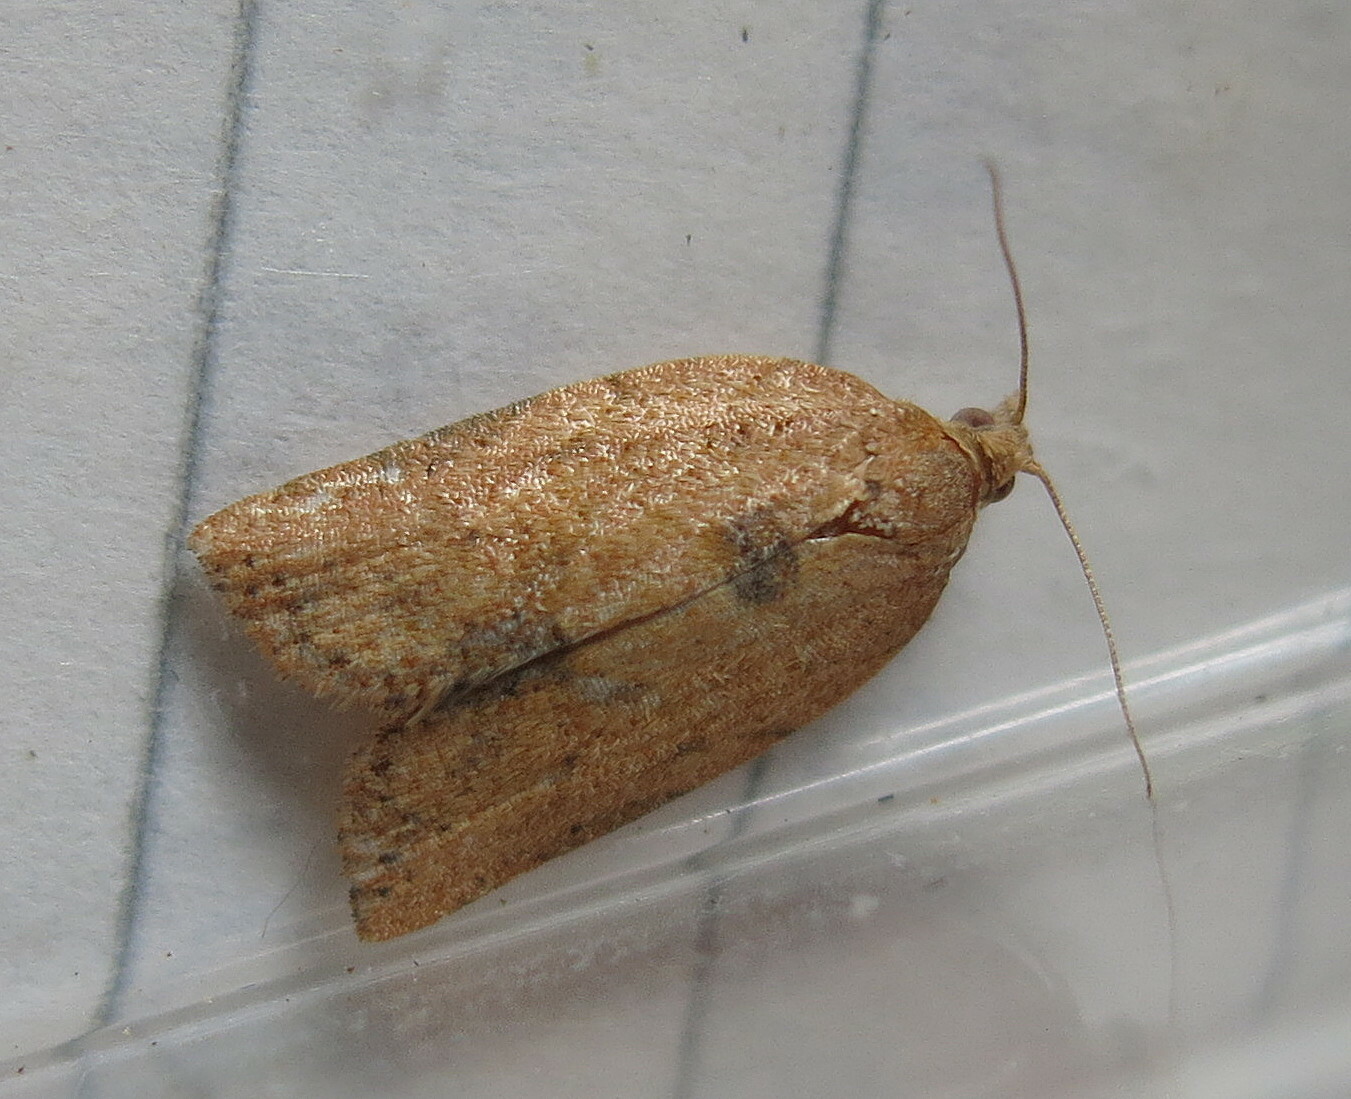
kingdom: Animalia
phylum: Arthropoda
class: Insecta
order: Lepidoptera
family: Tortricidae
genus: Epiphyas
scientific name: Epiphyas postvittana
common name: Light brown apple moth
